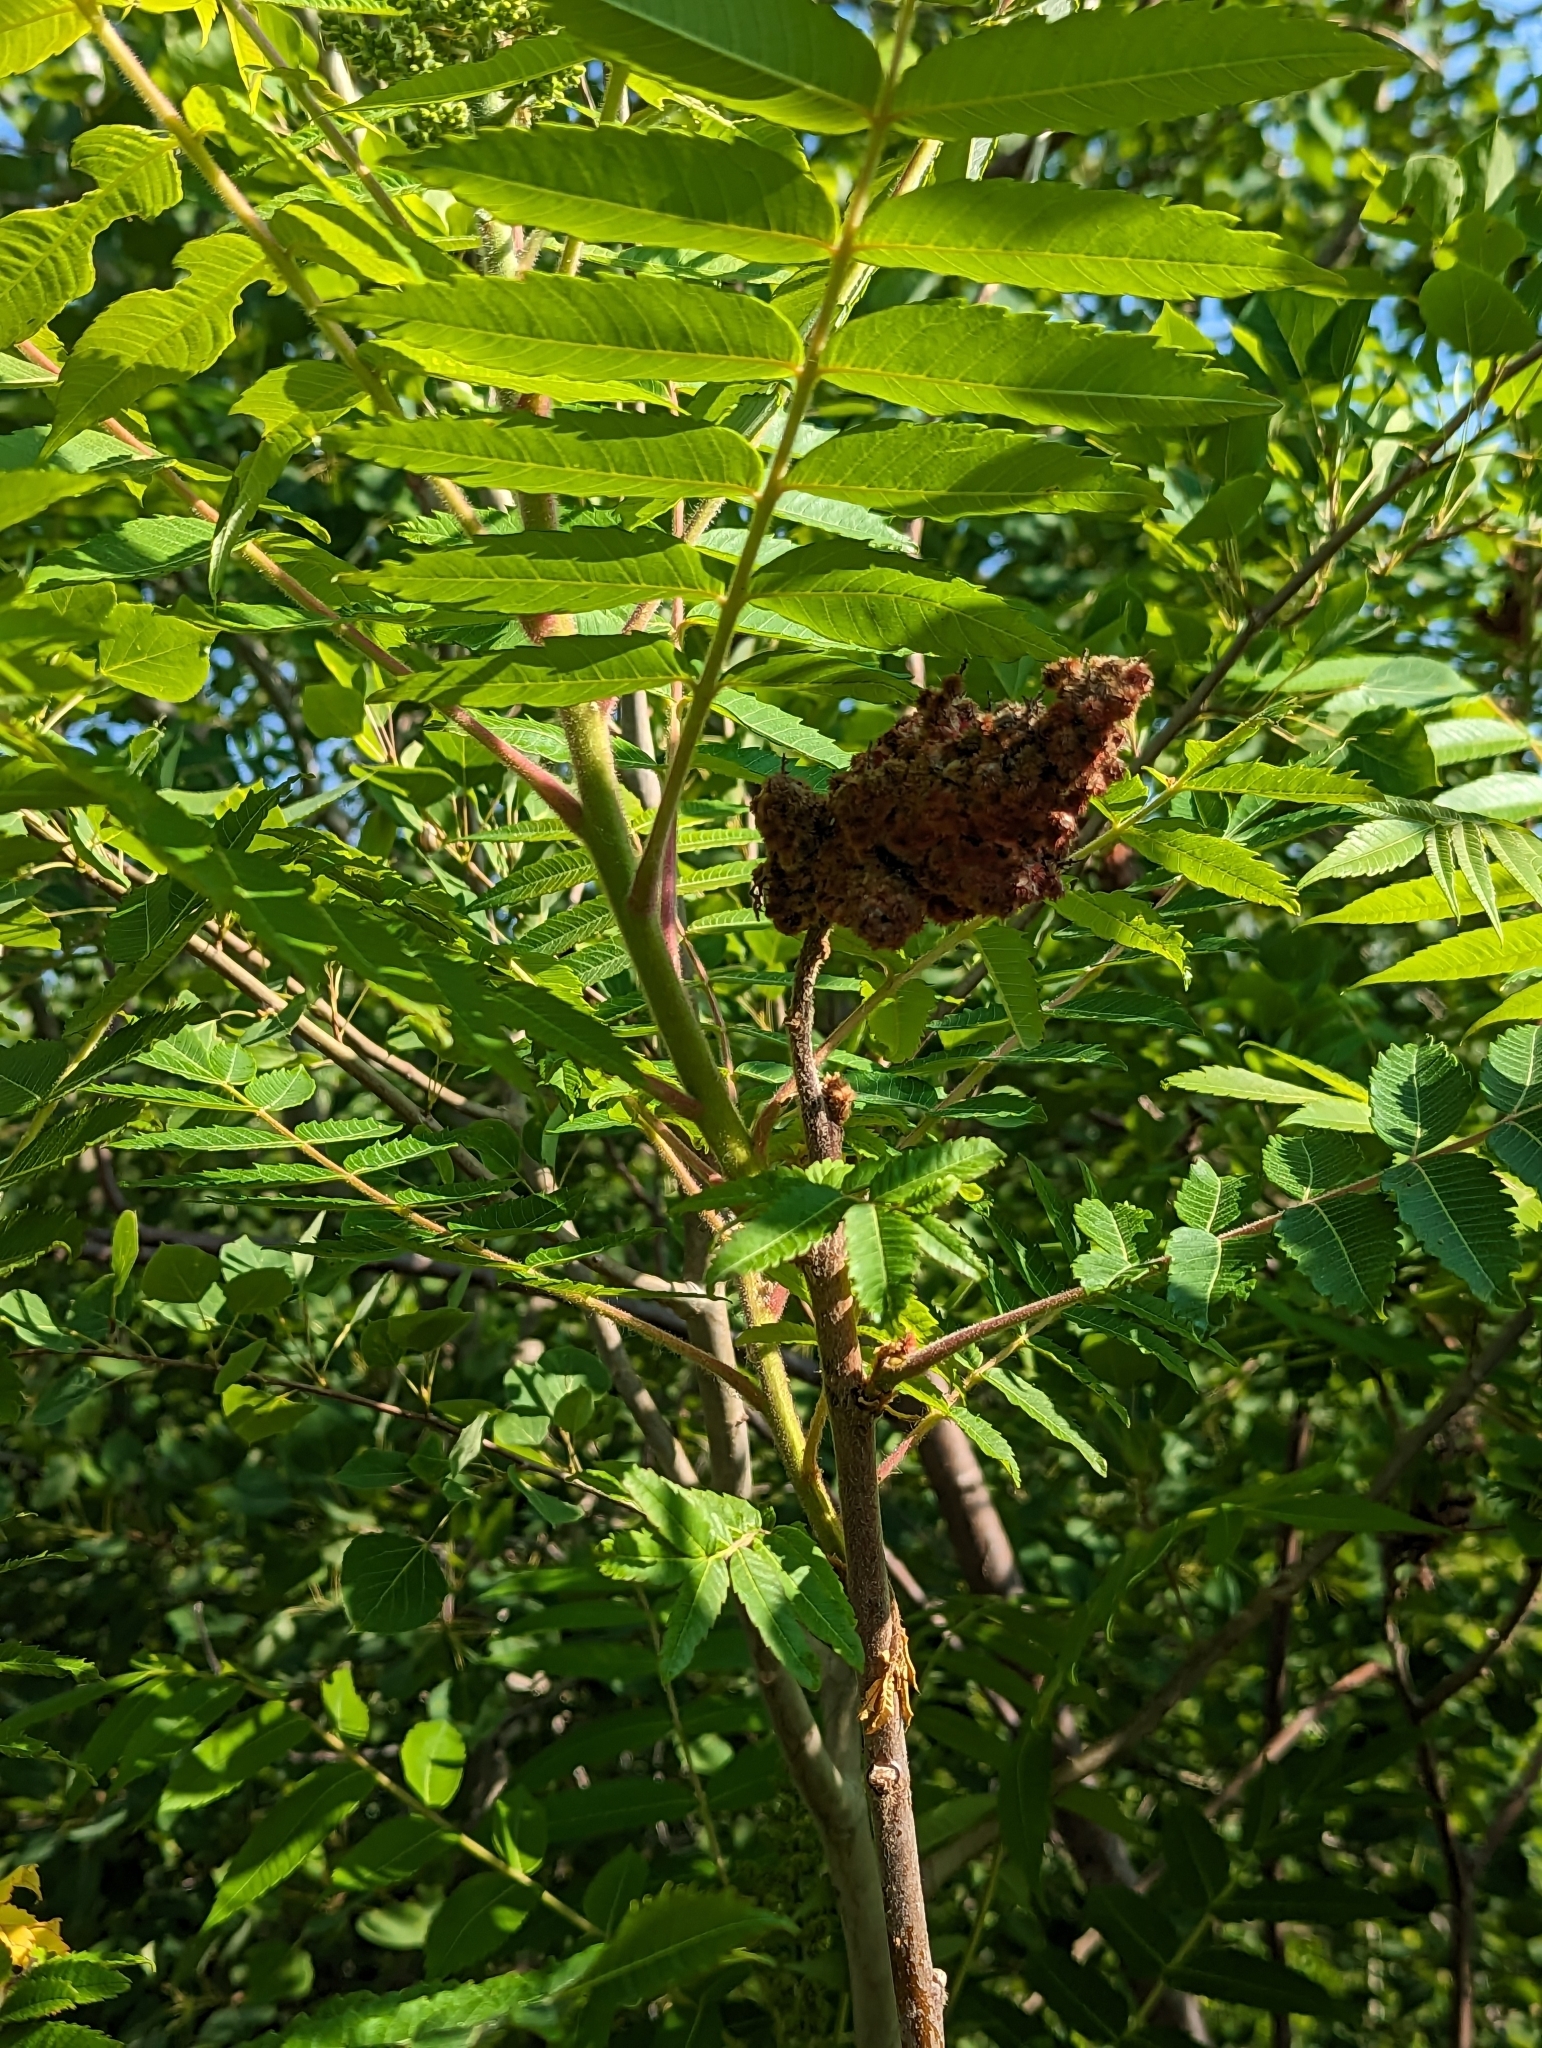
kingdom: Plantae
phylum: Tracheophyta
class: Magnoliopsida
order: Sapindales
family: Anacardiaceae
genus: Rhus
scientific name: Rhus typhina
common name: Staghorn sumac
